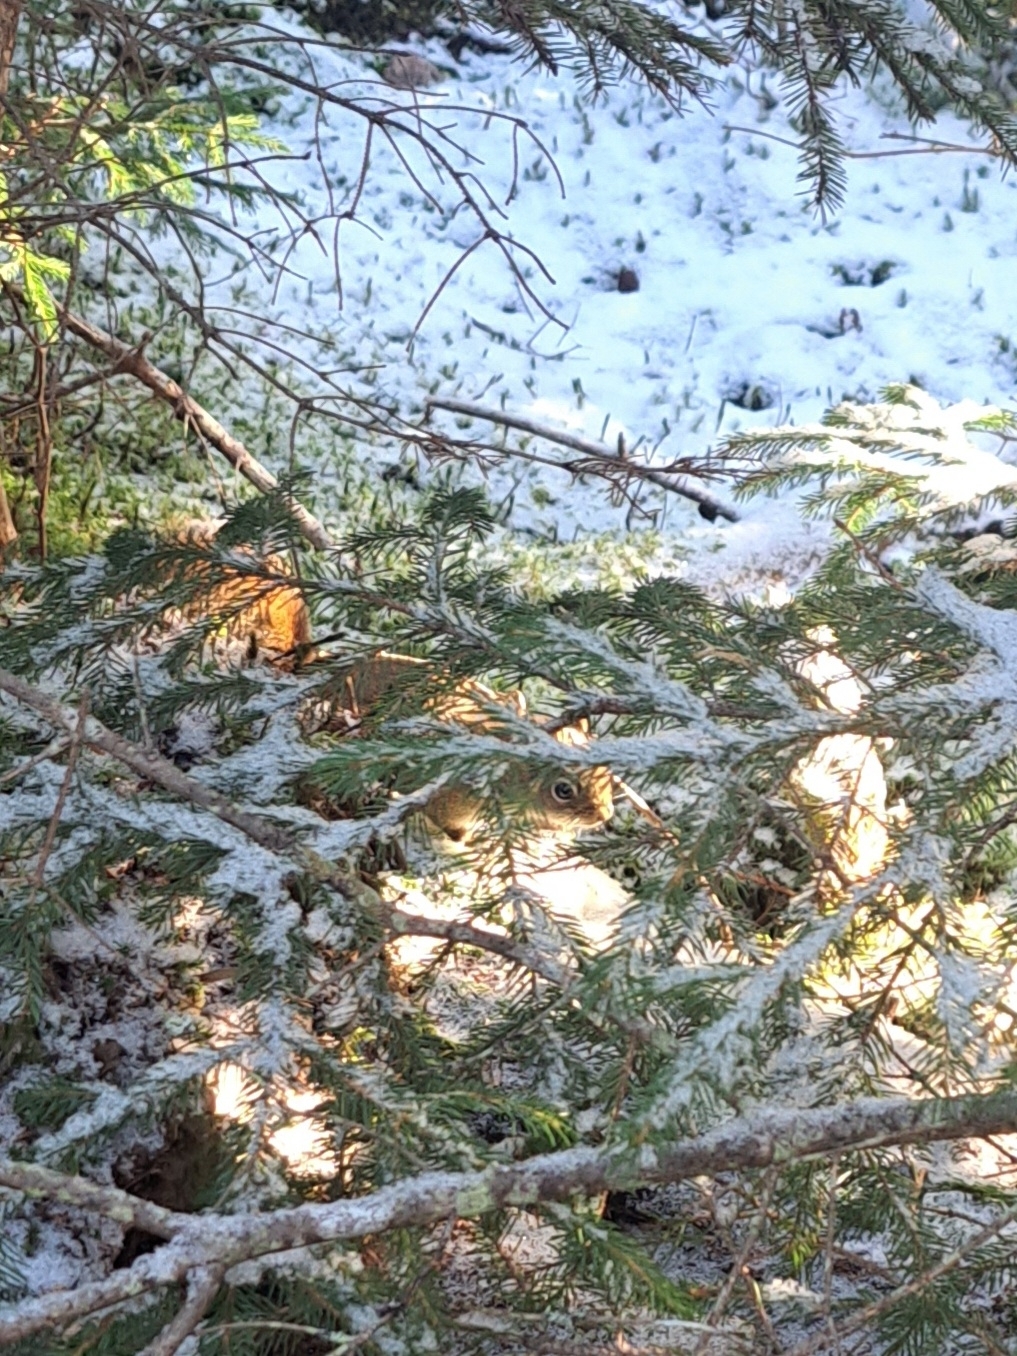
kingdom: Animalia
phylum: Chordata
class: Mammalia
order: Rodentia
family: Sciuridae
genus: Tamiasciurus
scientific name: Tamiasciurus hudsonicus
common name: Red squirrel
